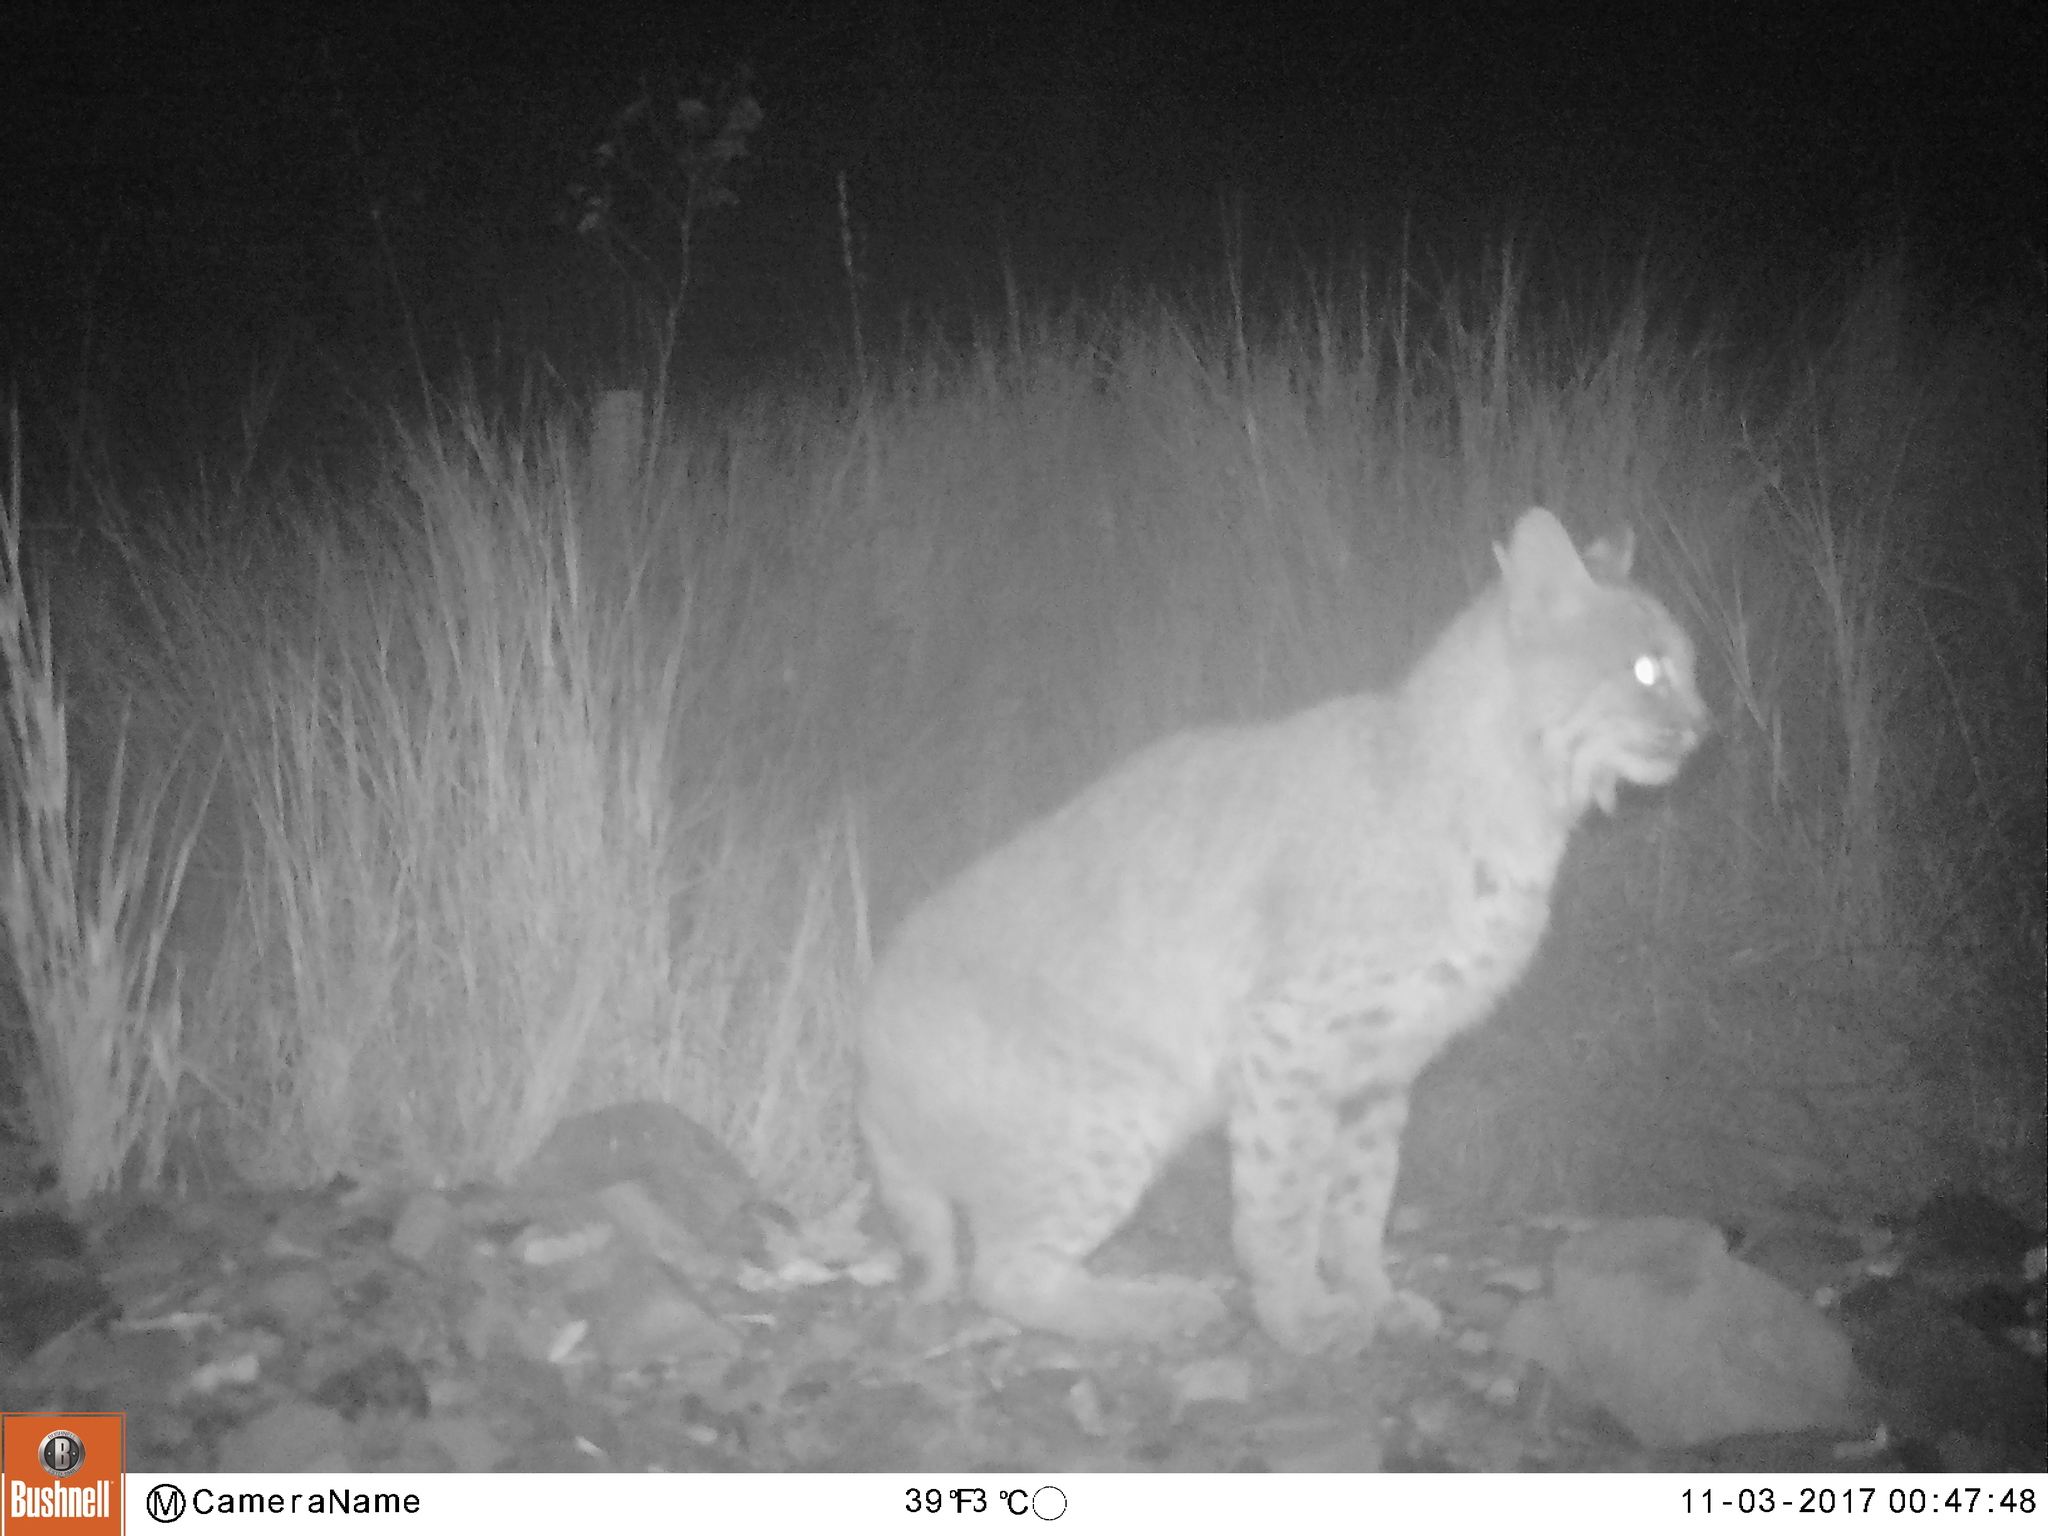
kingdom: Animalia
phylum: Chordata
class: Mammalia
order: Carnivora
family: Felidae
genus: Lynx
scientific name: Lynx rufus
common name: Bobcat
